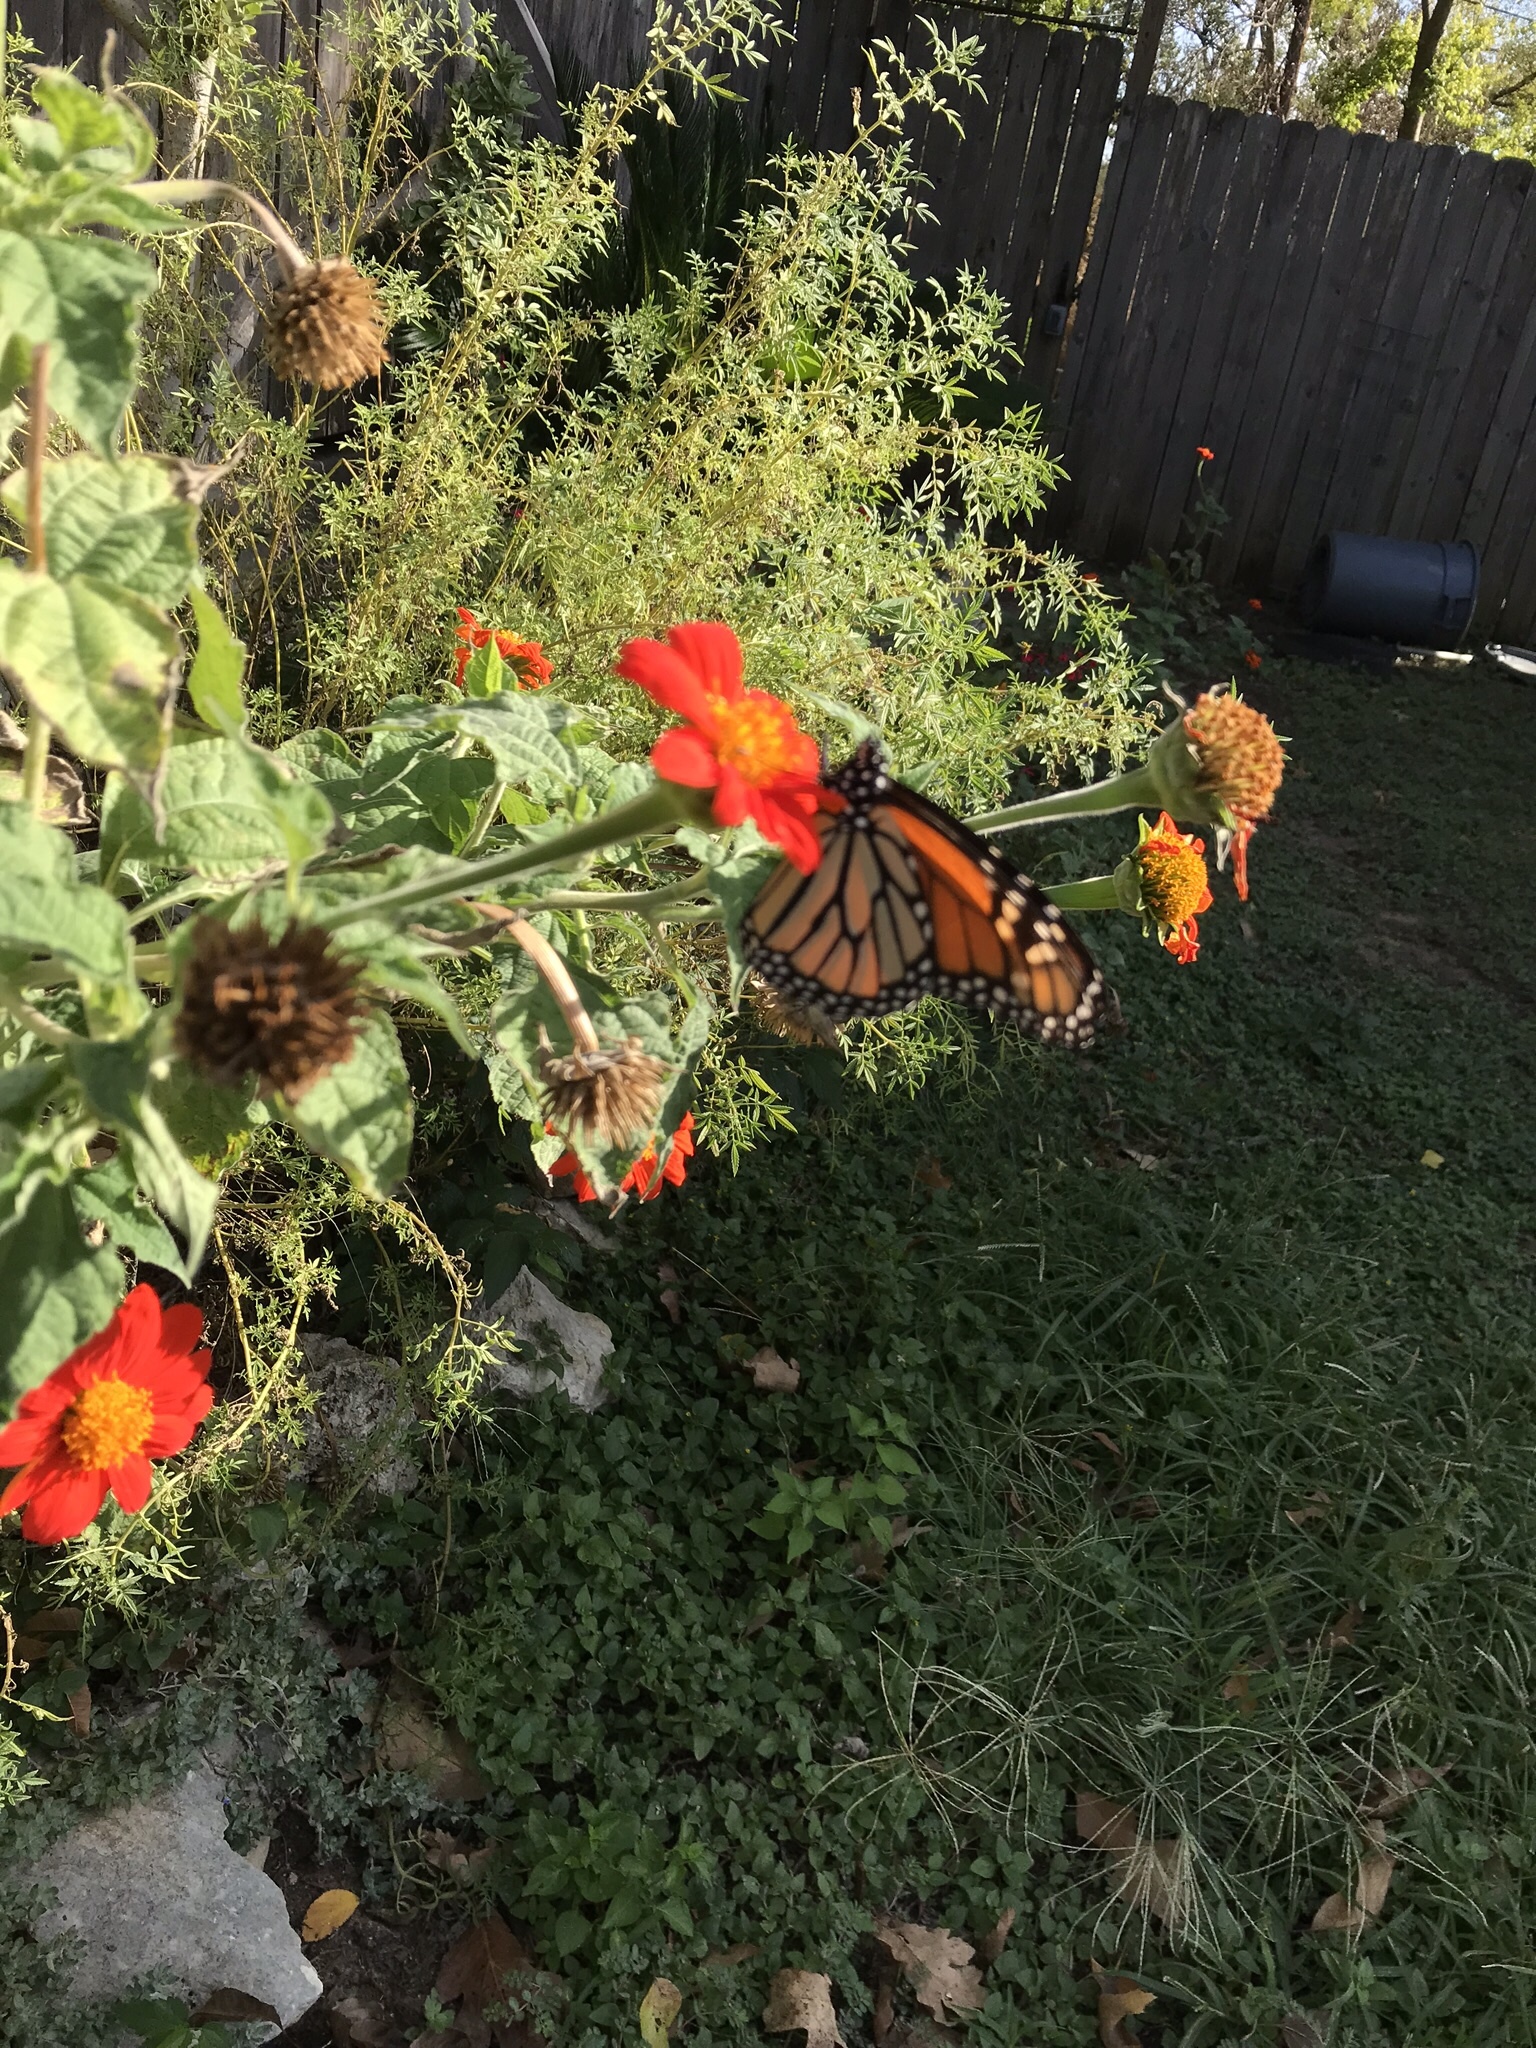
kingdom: Animalia
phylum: Arthropoda
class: Insecta
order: Lepidoptera
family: Nymphalidae
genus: Danaus
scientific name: Danaus plexippus
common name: Monarch
